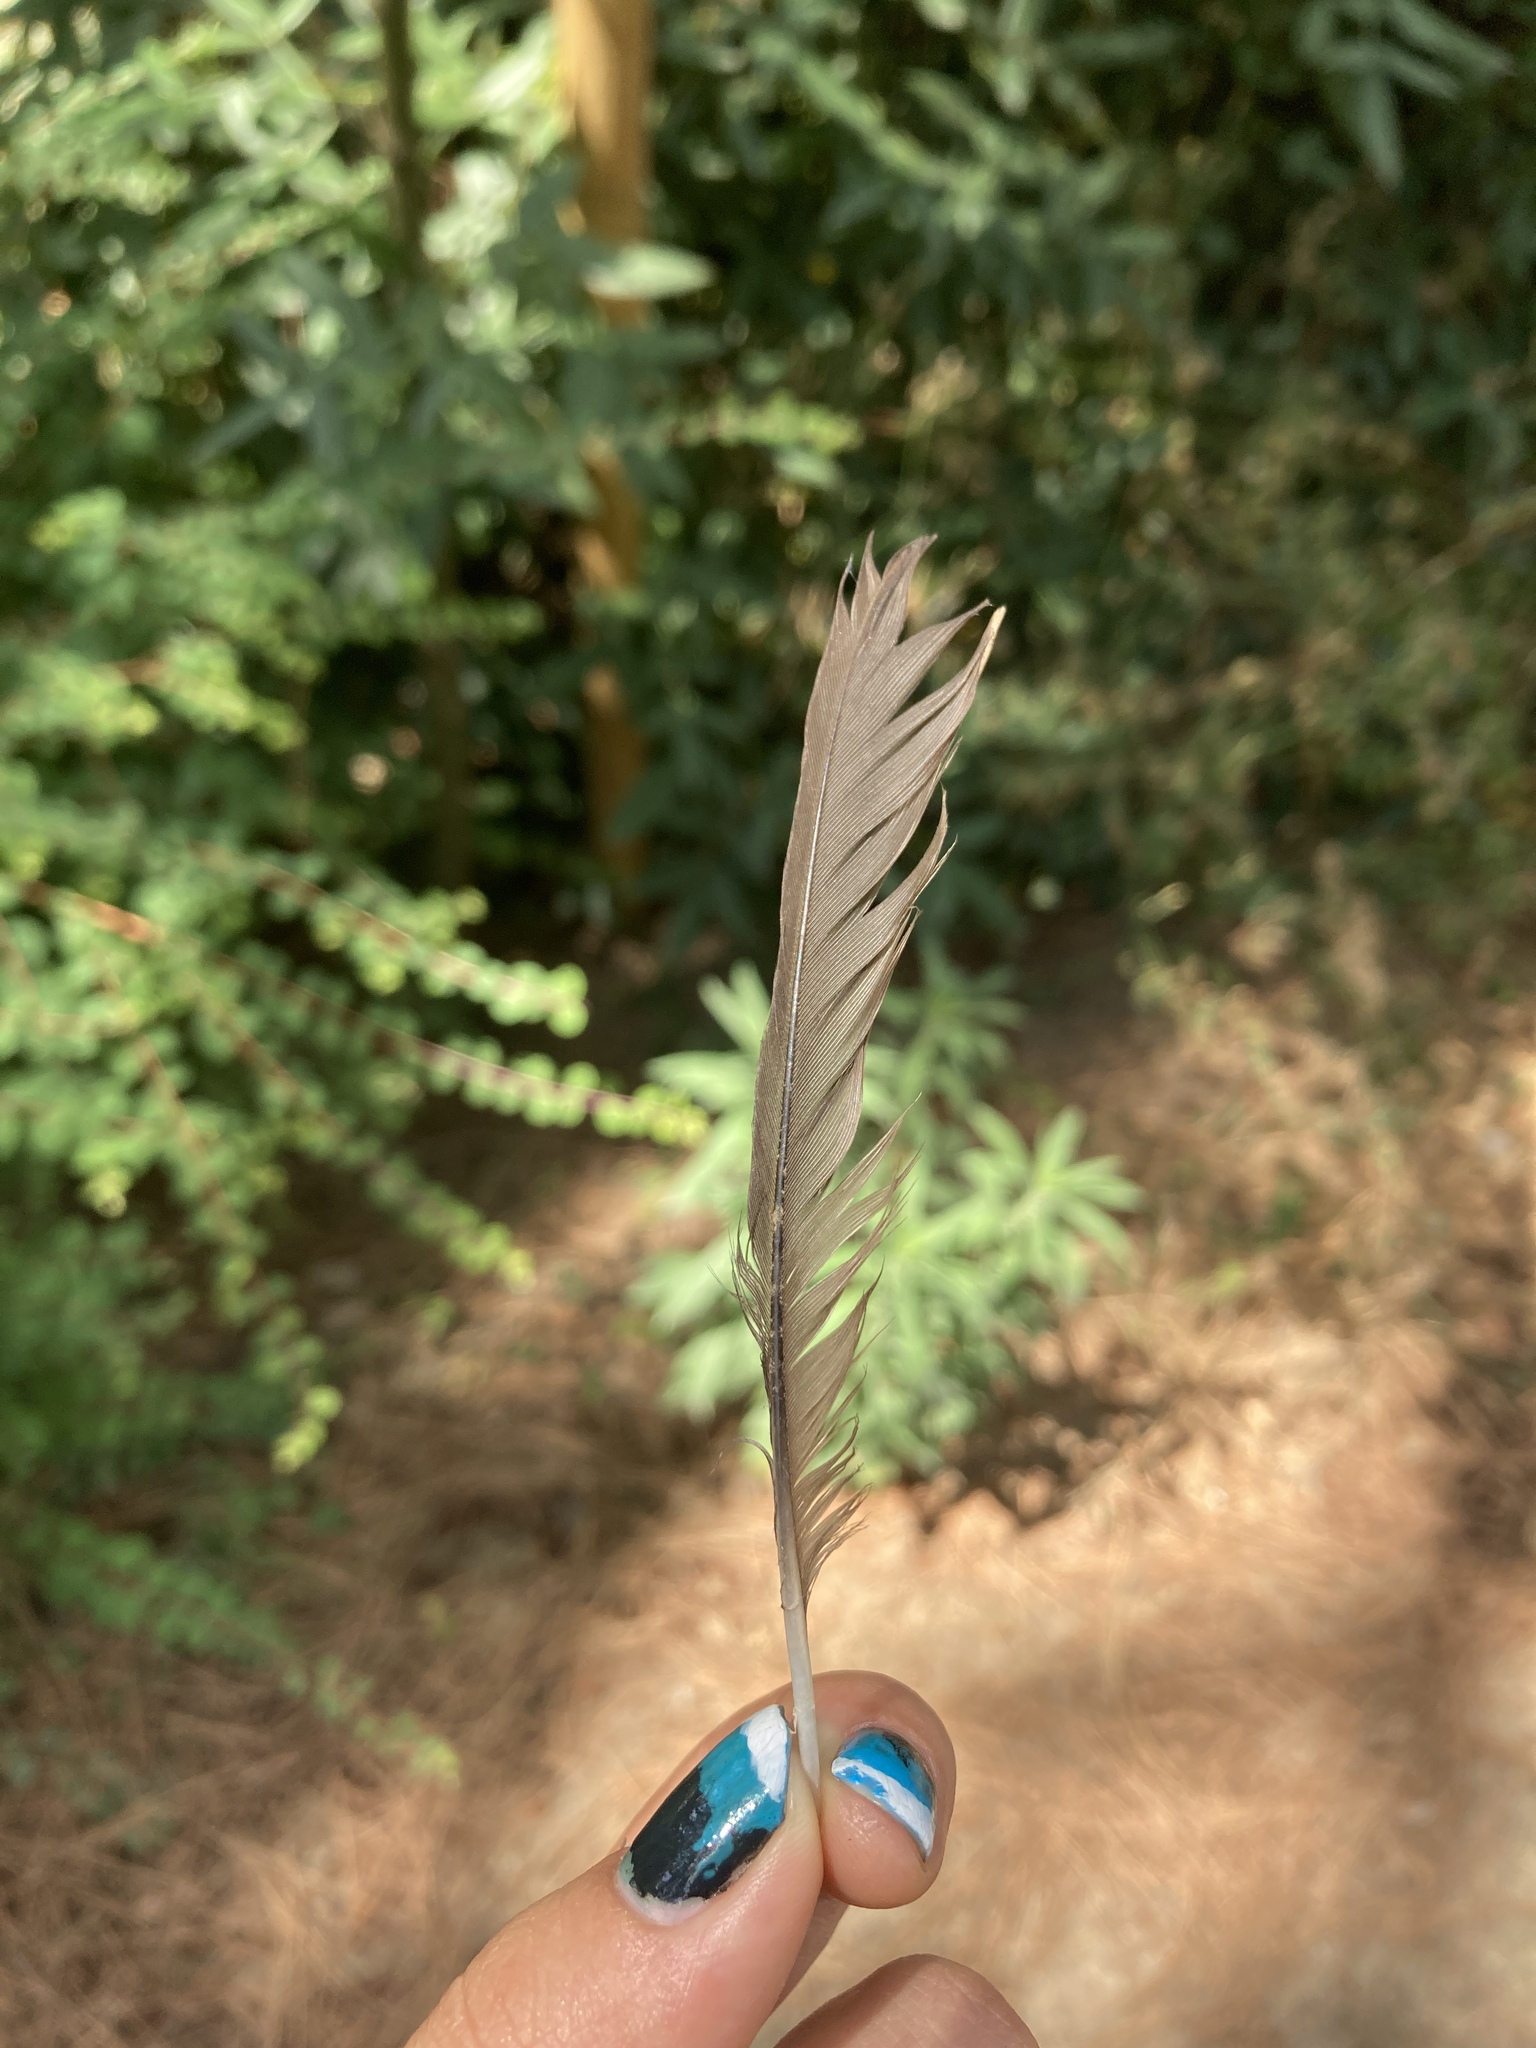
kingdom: Animalia
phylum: Chordata
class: Aves
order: Passeriformes
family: Turdidae
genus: Turdus
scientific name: Turdus merula
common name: Common blackbird
